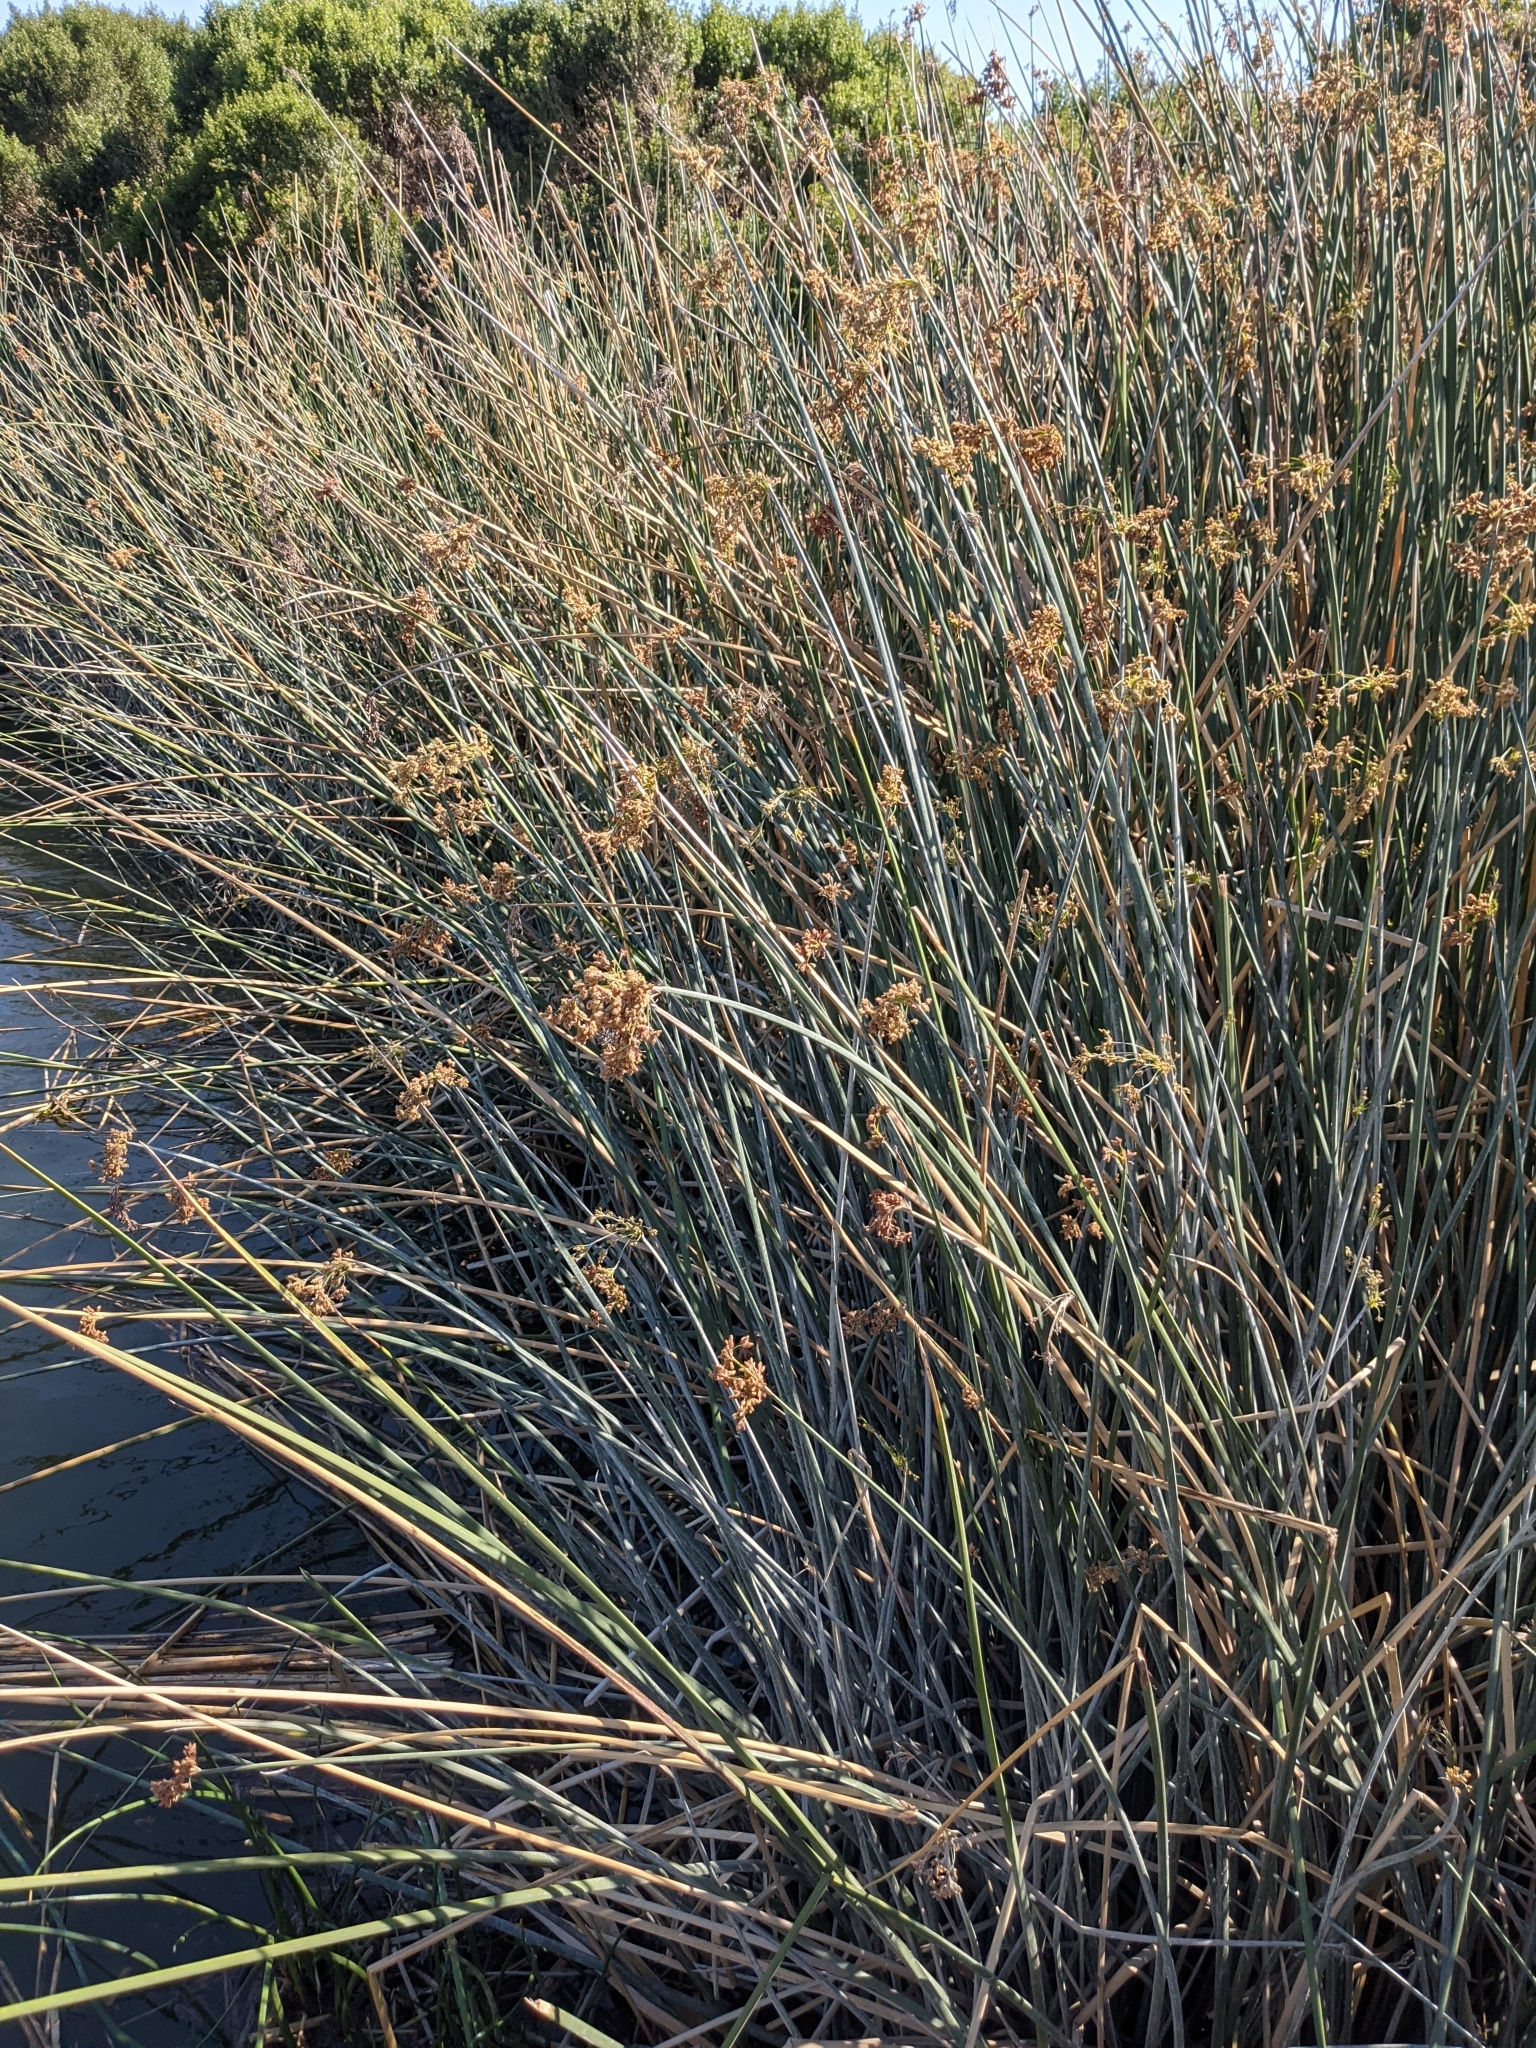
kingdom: Plantae
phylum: Tracheophyta
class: Liliopsida
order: Poales
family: Cyperaceae
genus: Schoenoplectus
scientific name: Schoenoplectus californicus
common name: California bulrush
